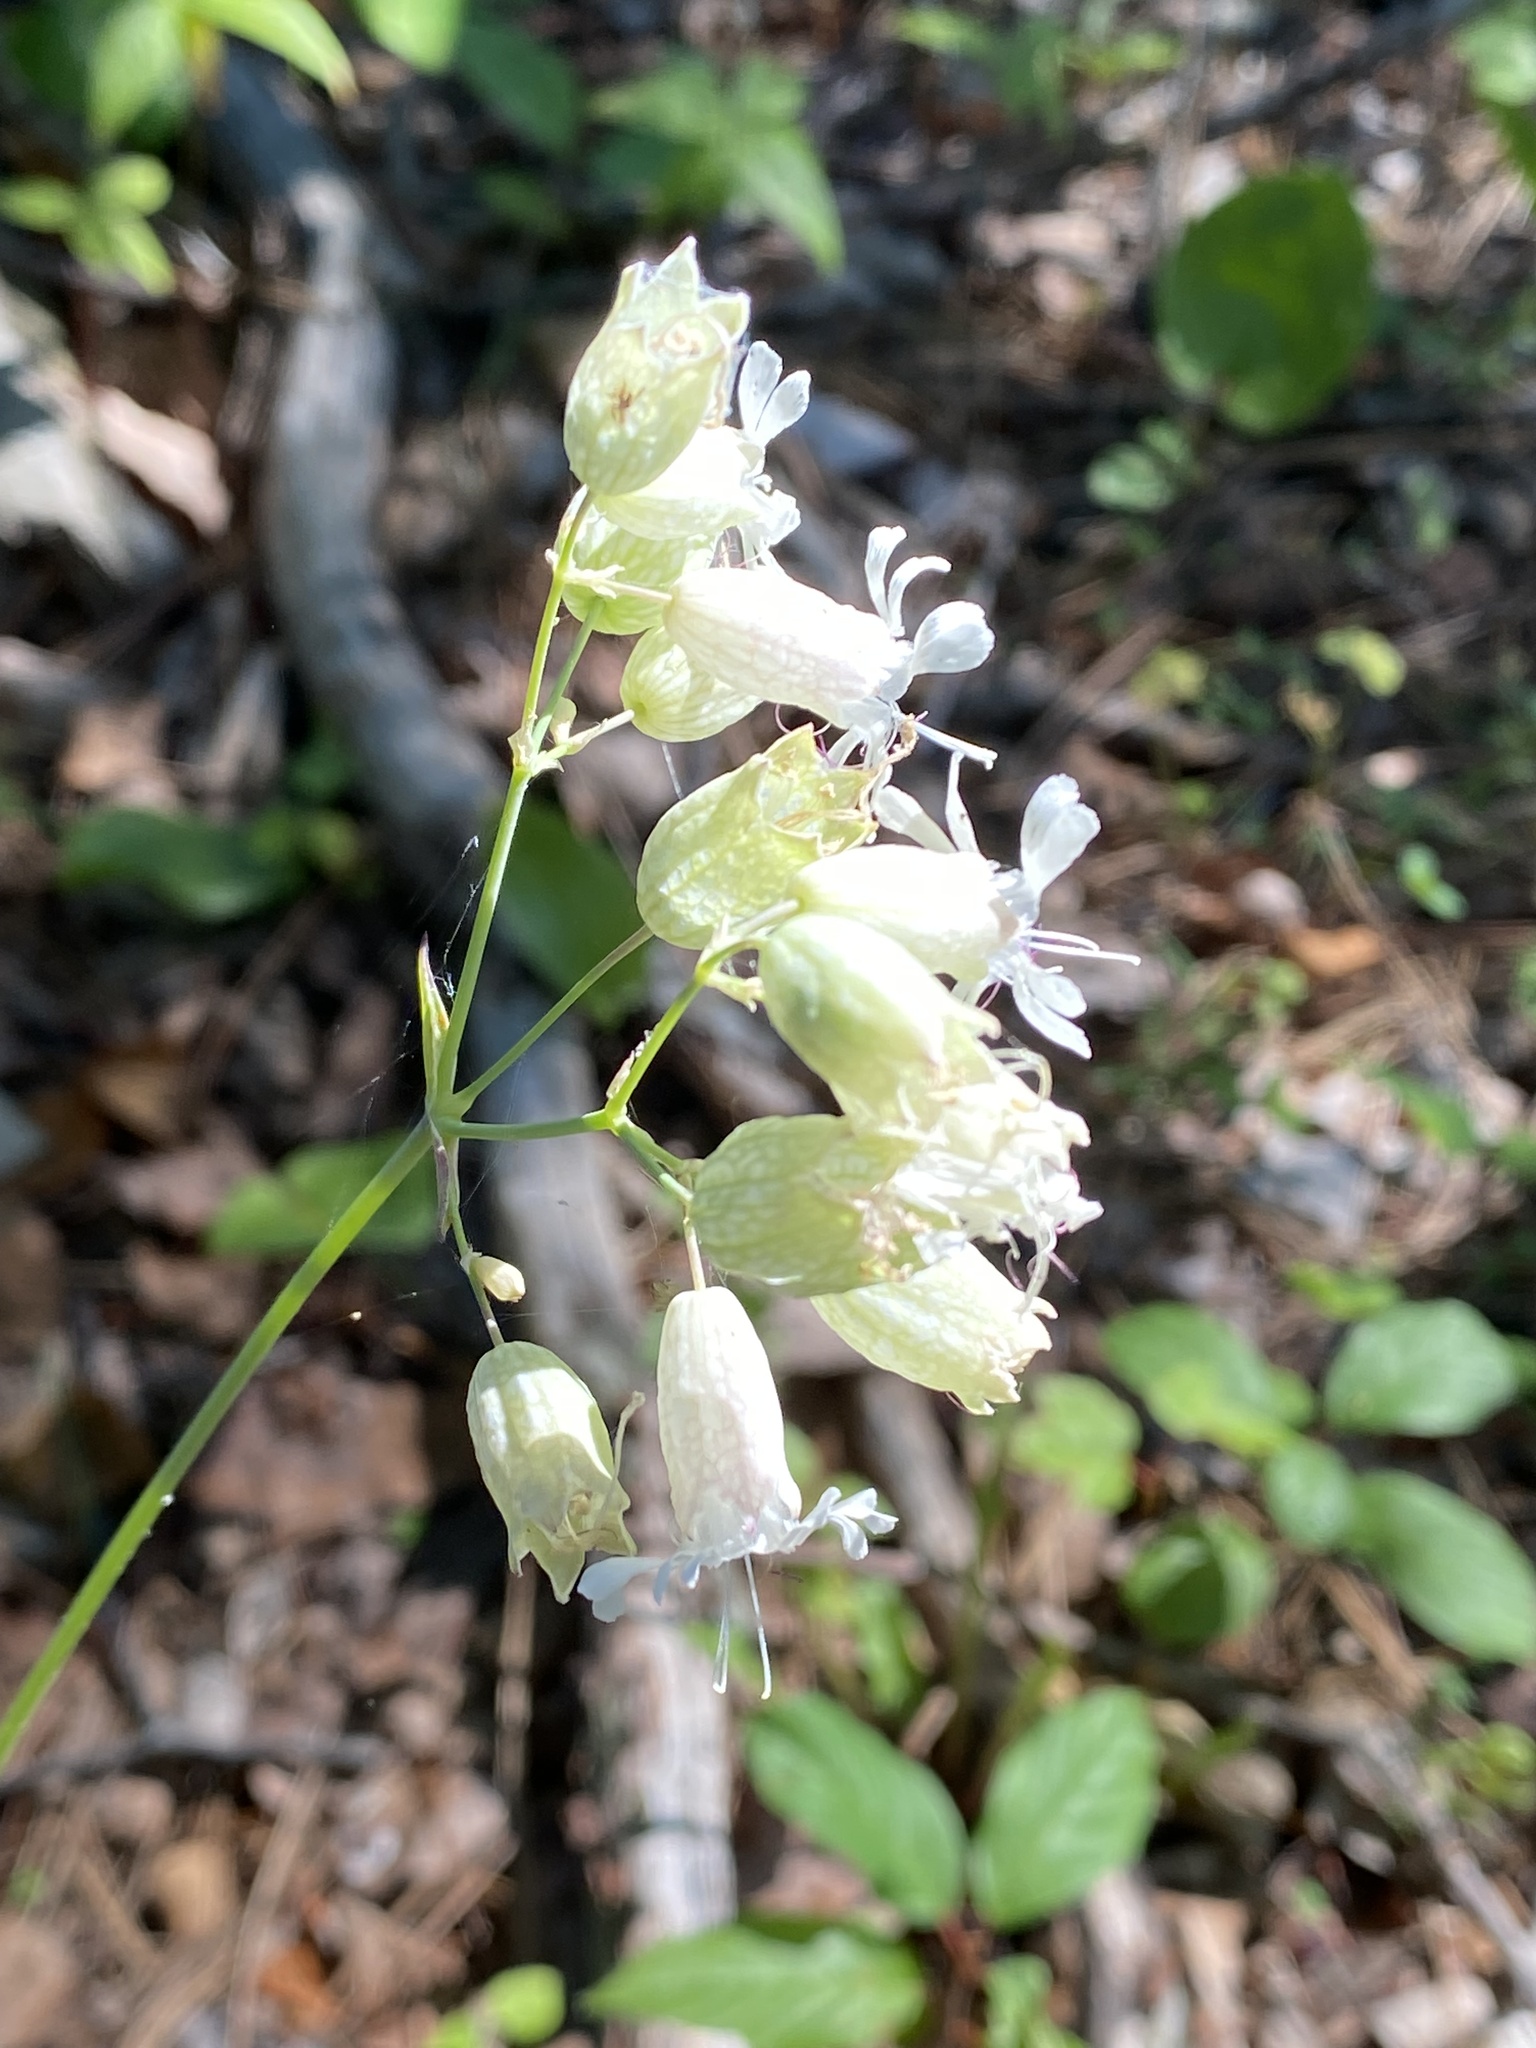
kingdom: Plantae
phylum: Tracheophyta
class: Magnoliopsida
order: Caryophyllales
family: Caryophyllaceae
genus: Silene
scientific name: Silene vulgaris
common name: Bladder campion
